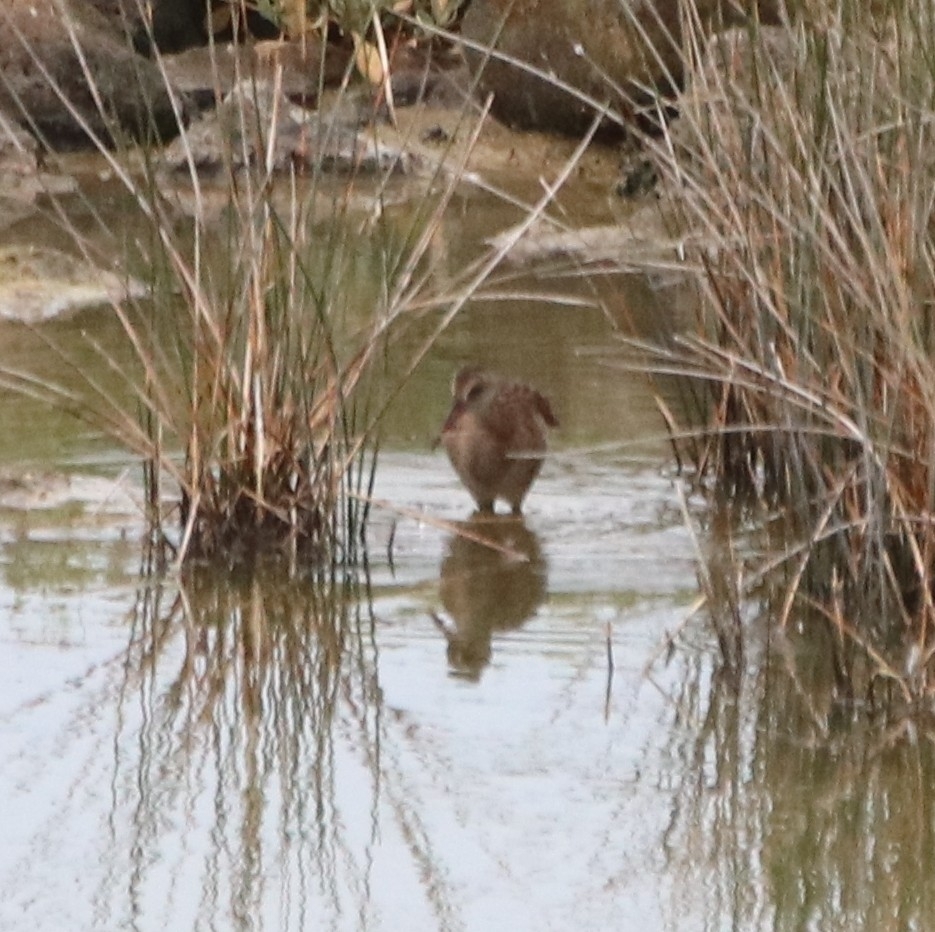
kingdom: Animalia
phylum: Chordata
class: Aves
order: Gruiformes
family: Rallidae
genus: Rallus
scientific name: Rallus aquaticus
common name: Water rail
